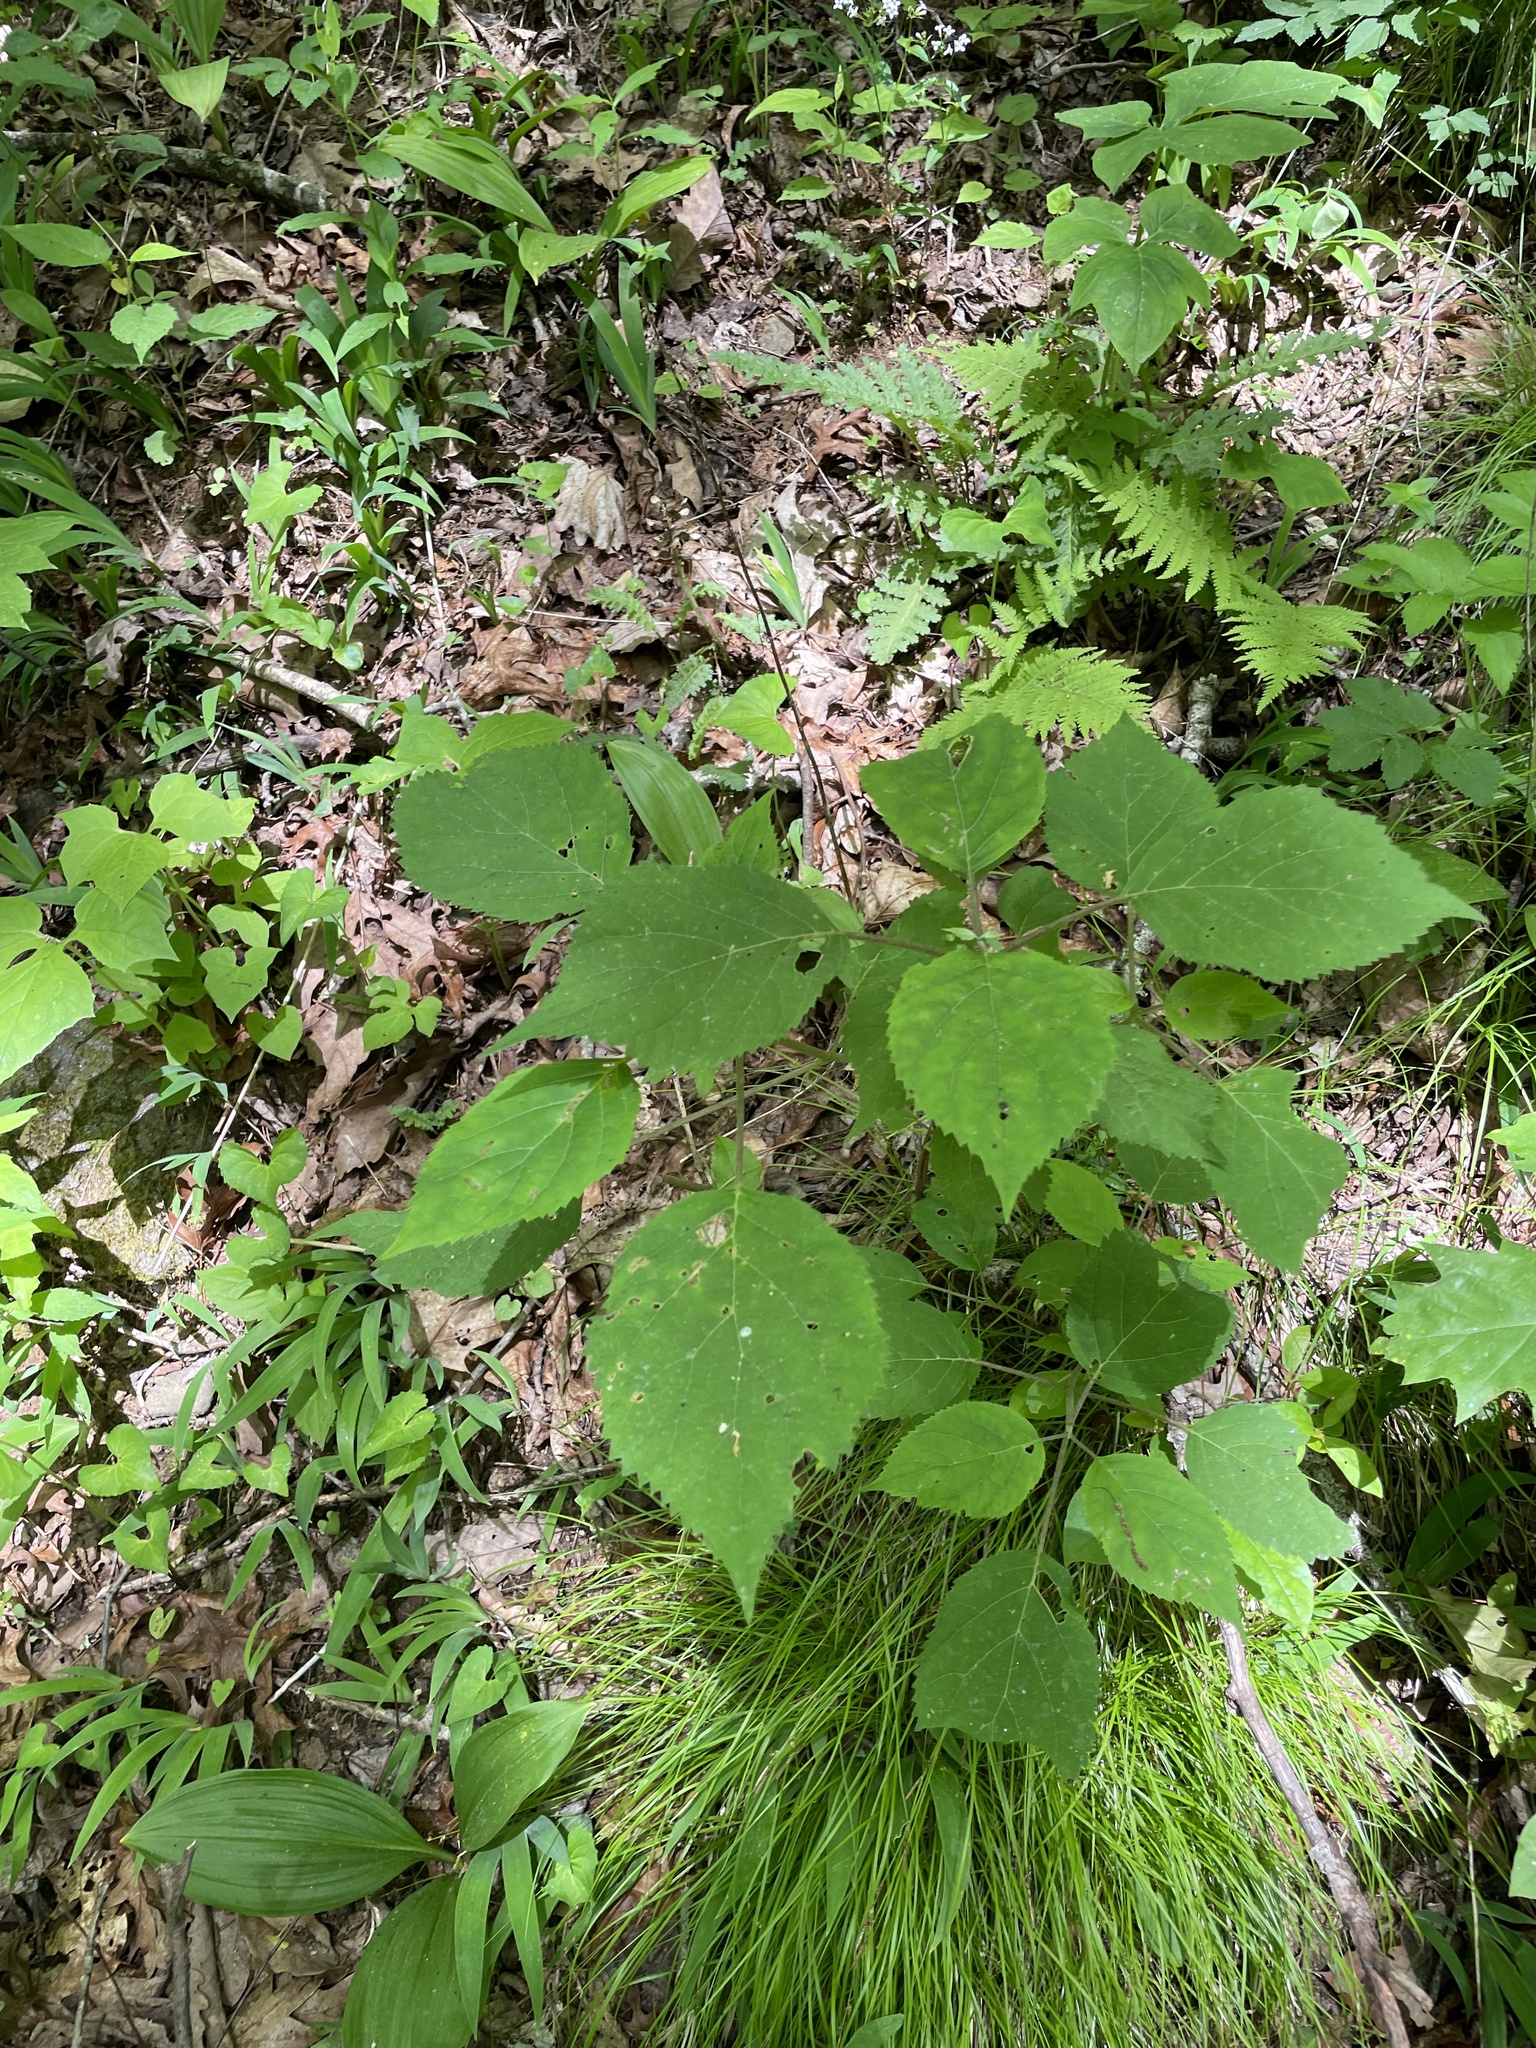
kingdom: Plantae
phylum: Tracheophyta
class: Magnoliopsida
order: Rosales
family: Urticaceae
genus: Laportea
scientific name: Laportea canadensis
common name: Canada nettle
